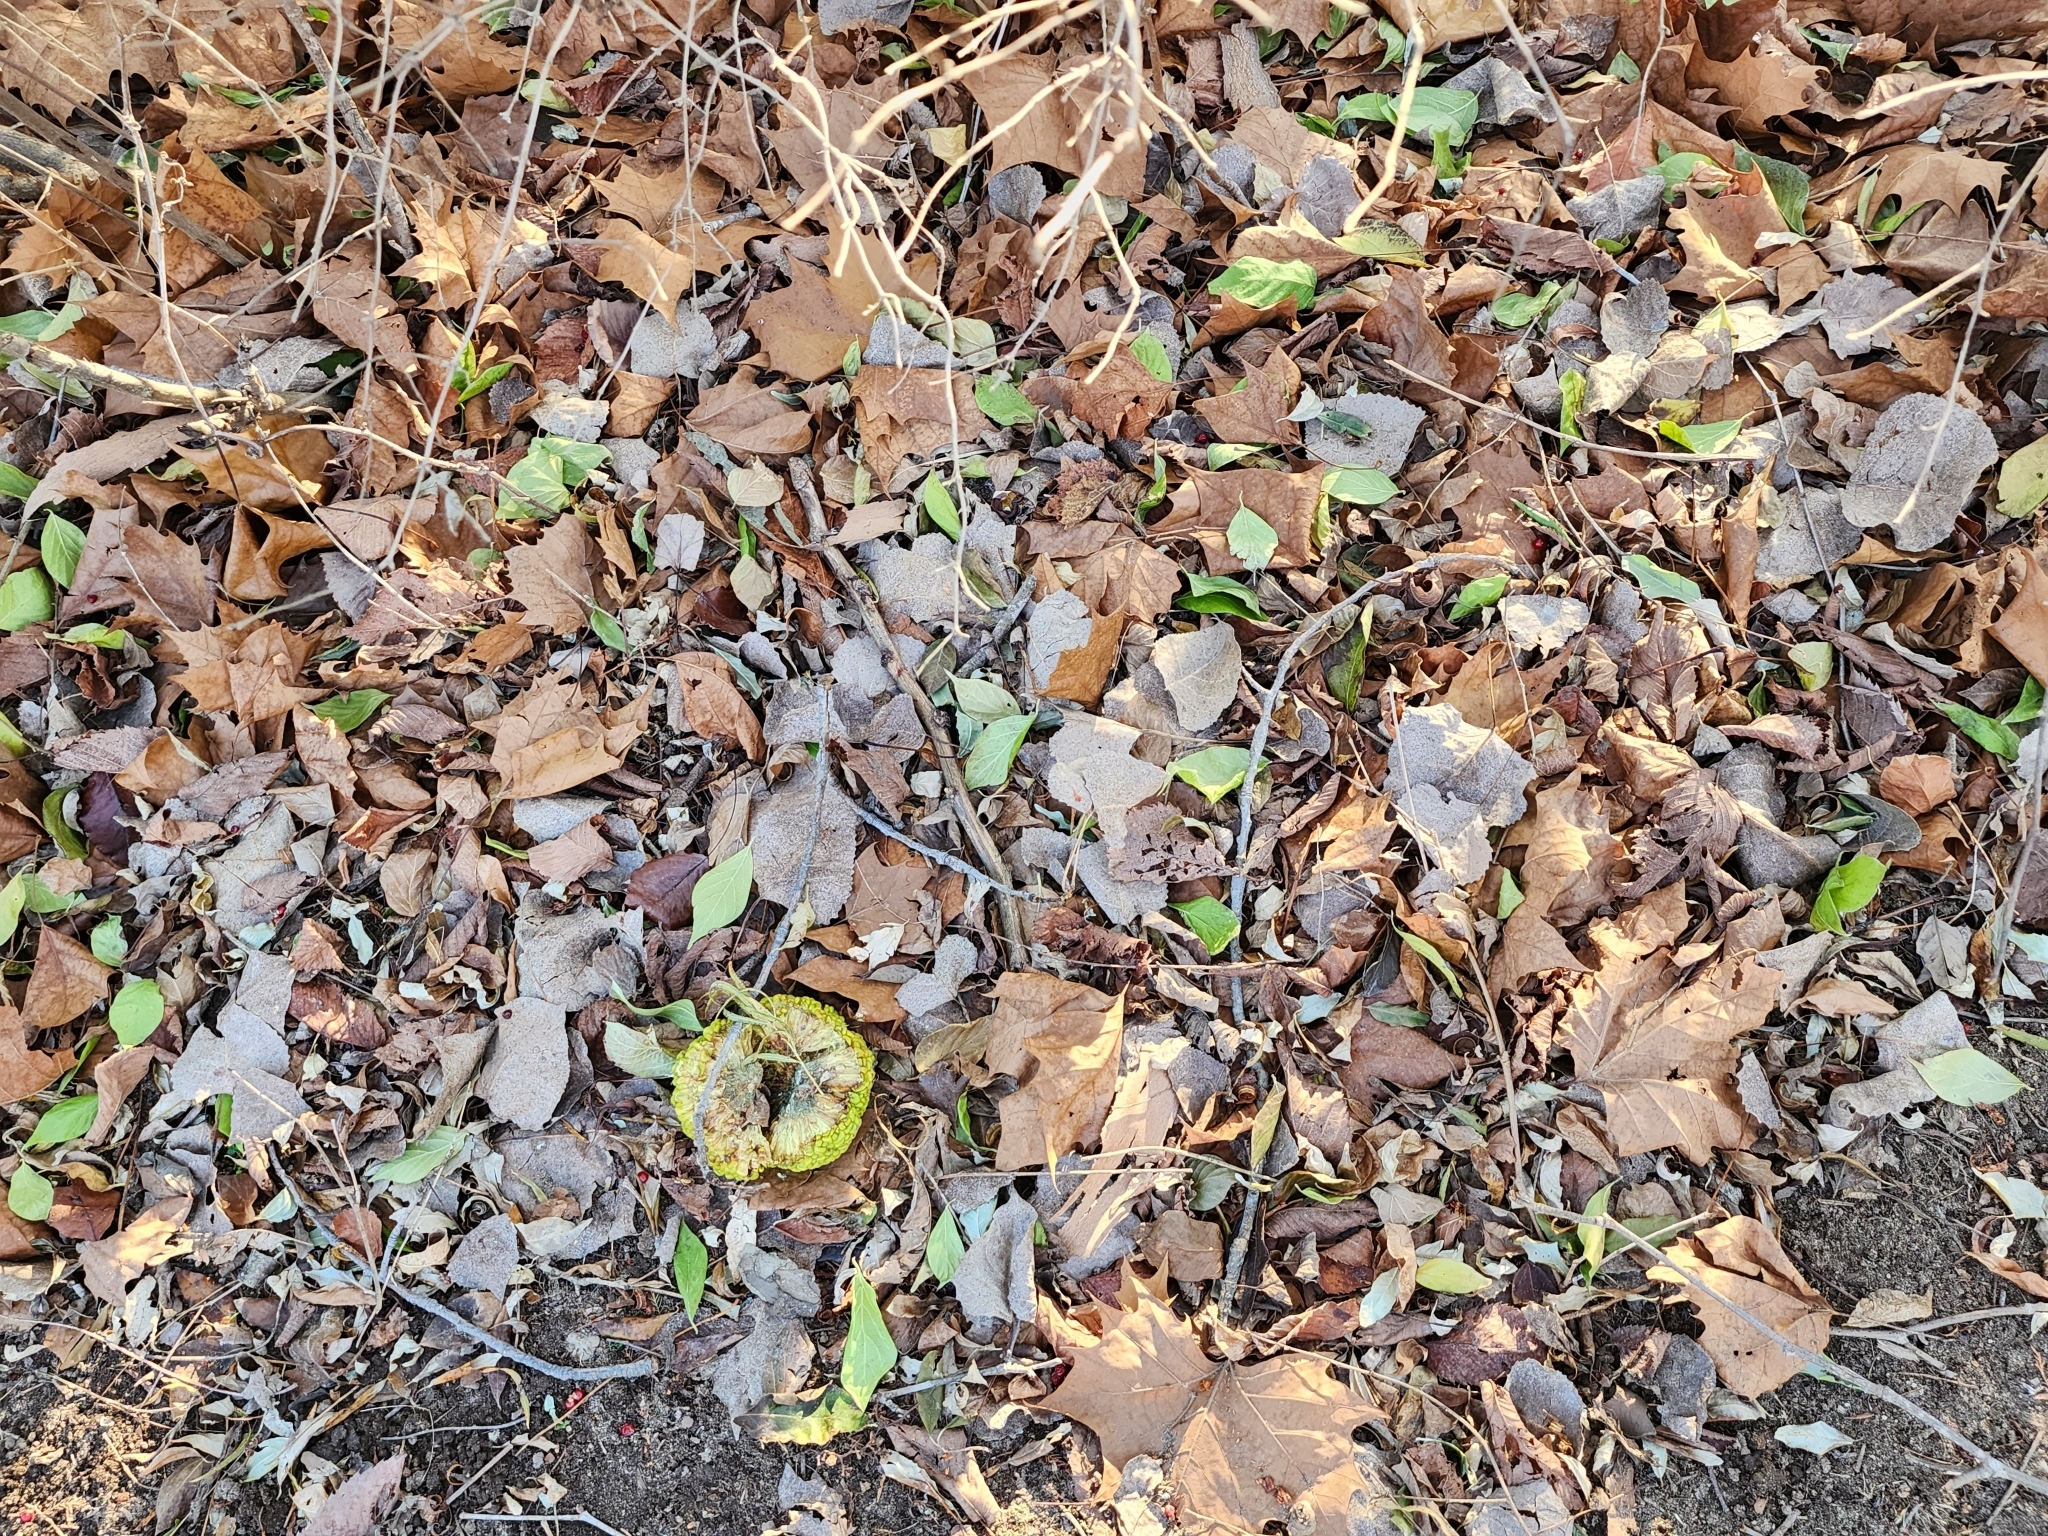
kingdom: Plantae
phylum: Tracheophyta
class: Magnoliopsida
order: Rosales
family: Moraceae
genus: Maclura
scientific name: Maclura pomifera
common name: Osage-orange
